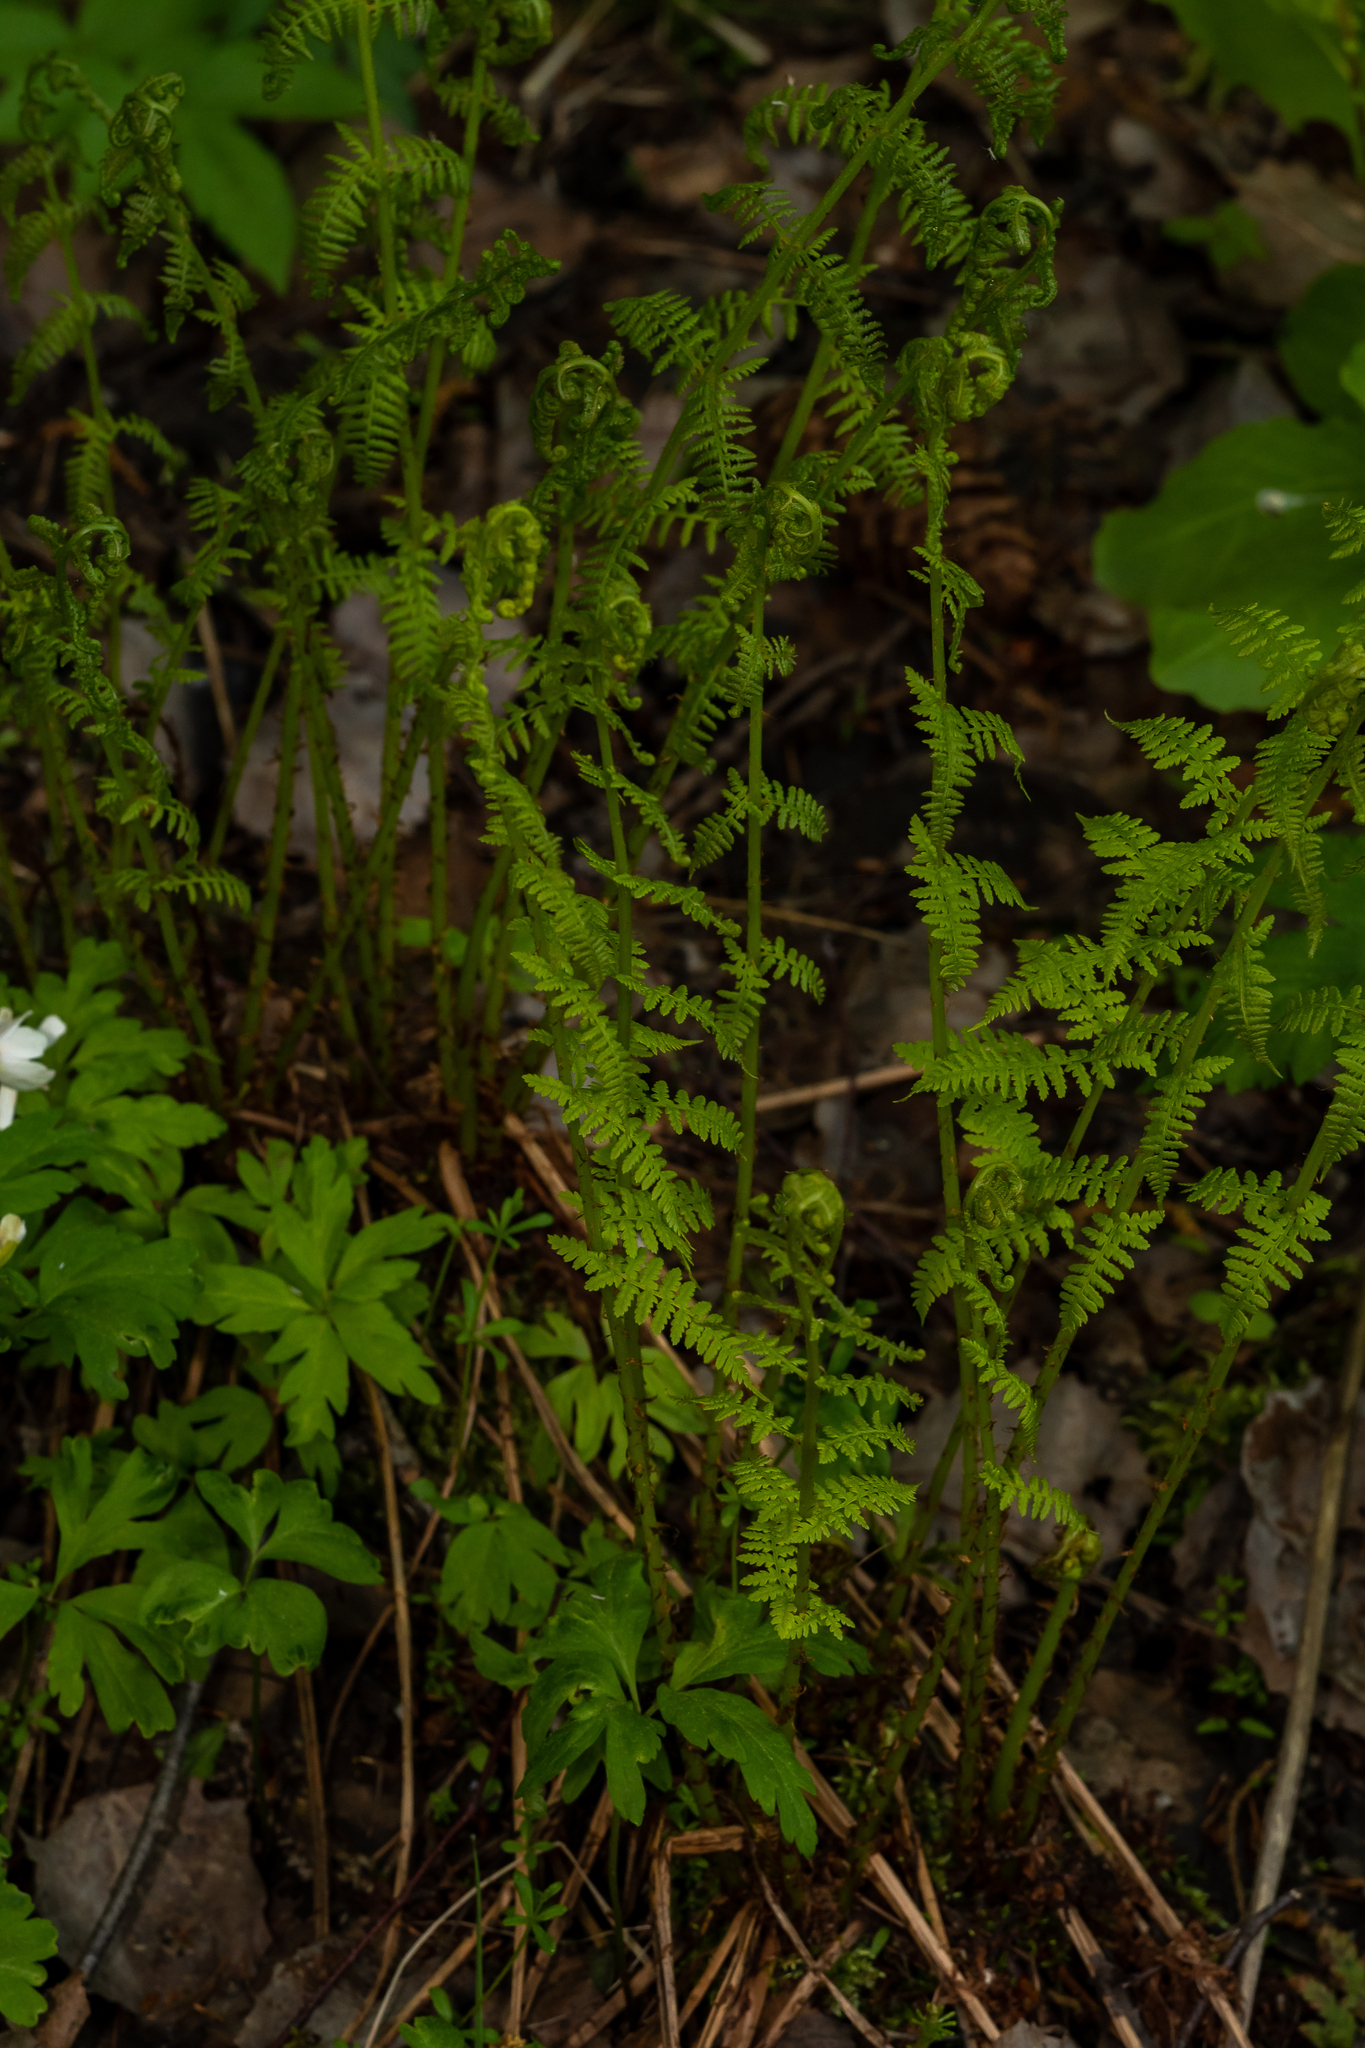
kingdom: Plantae
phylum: Tracheophyta
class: Polypodiopsida
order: Polypodiales
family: Athyriaceae
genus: Athyrium
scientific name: Athyrium filix-femina
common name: Lady fern
